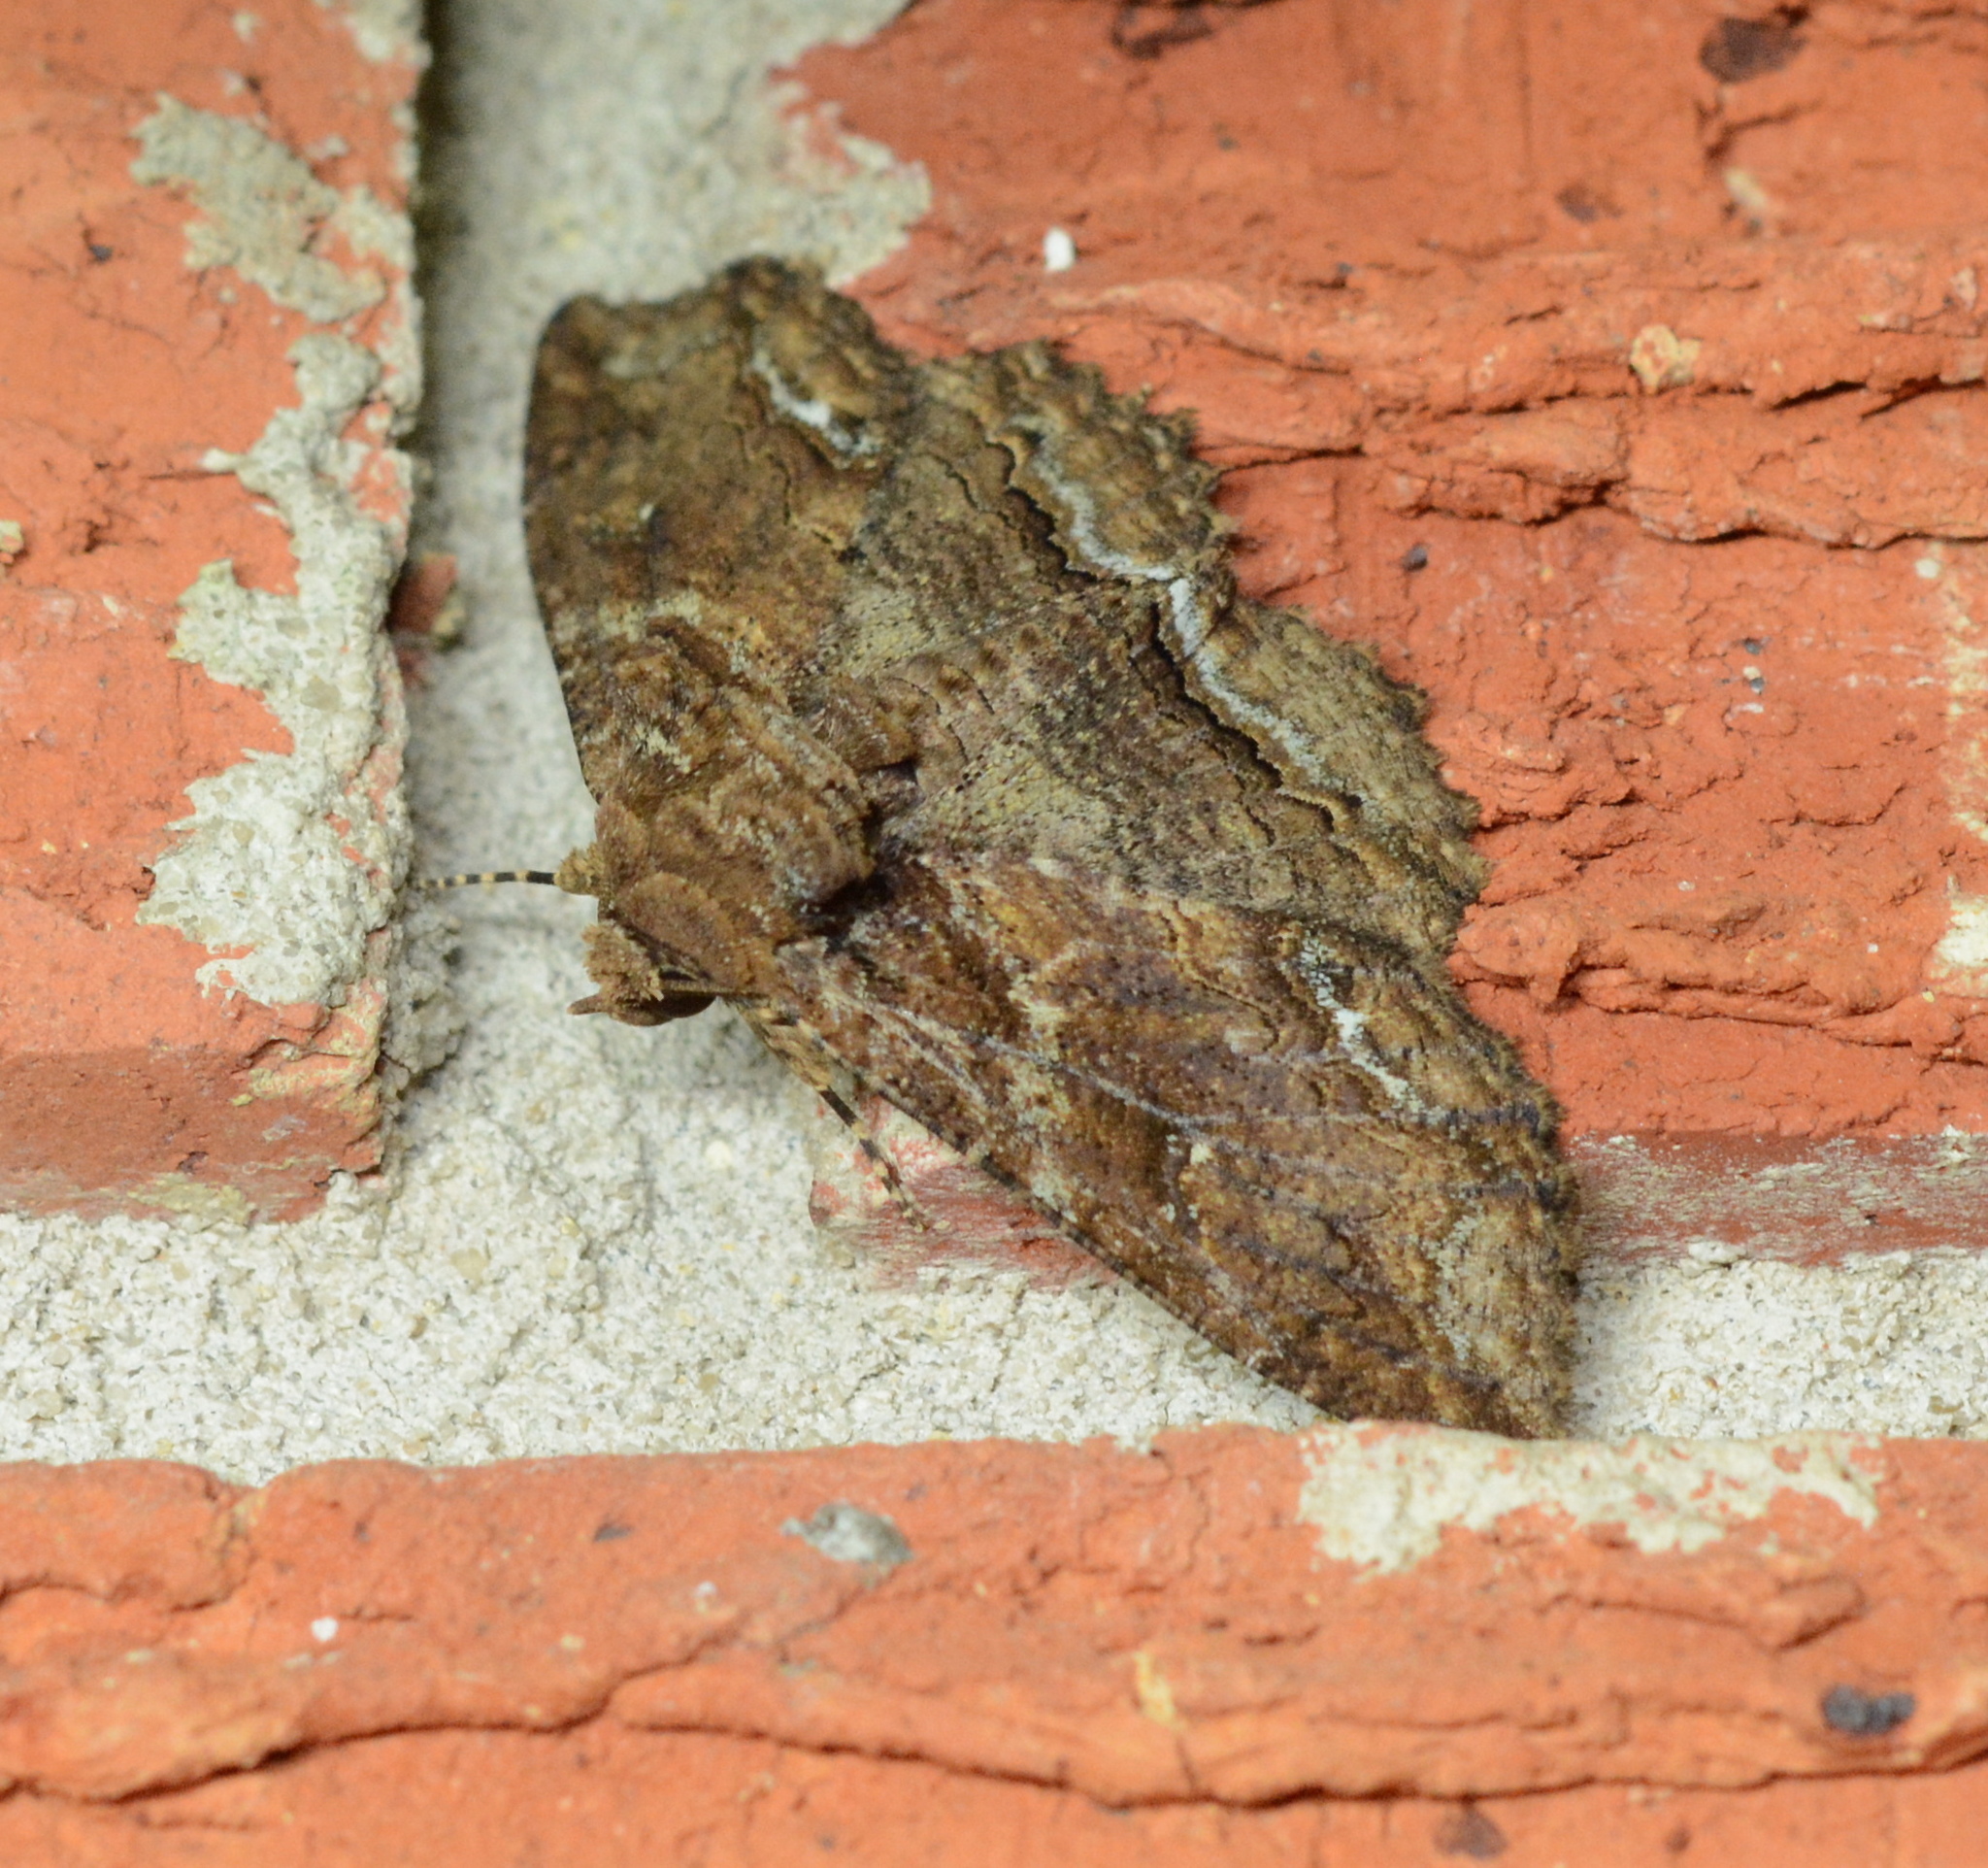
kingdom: Animalia
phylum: Arthropoda
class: Insecta
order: Lepidoptera
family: Erebidae
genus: Zale
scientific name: Zale lunata
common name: Lunate zale moth
